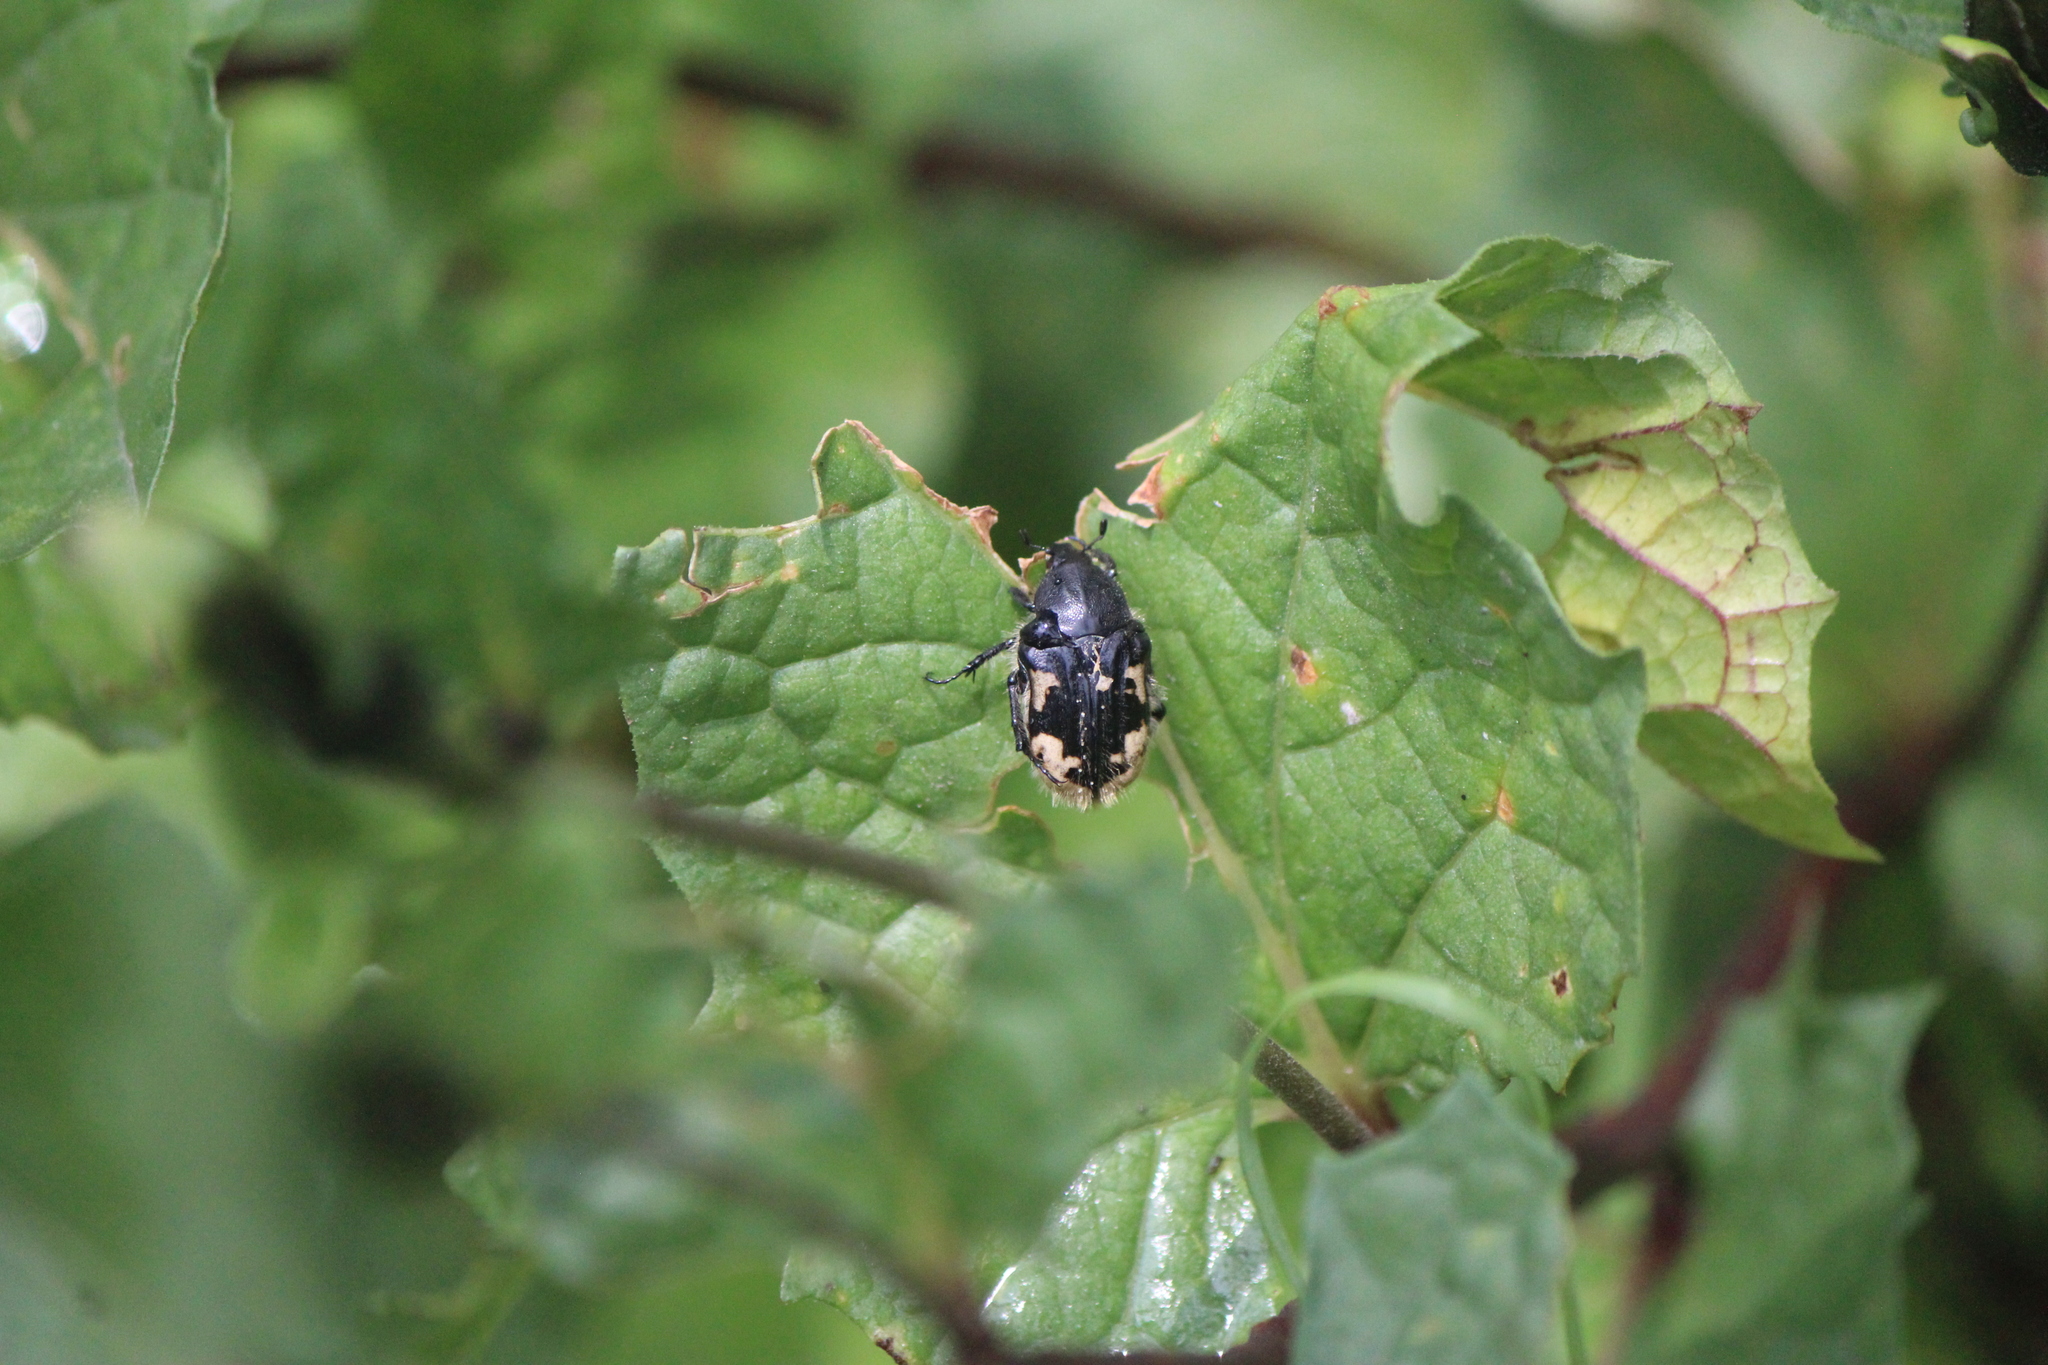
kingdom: Animalia
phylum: Arthropoda
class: Insecta
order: Coleoptera
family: Scarabaeidae
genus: Euphoria
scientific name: Euphoria basalis
